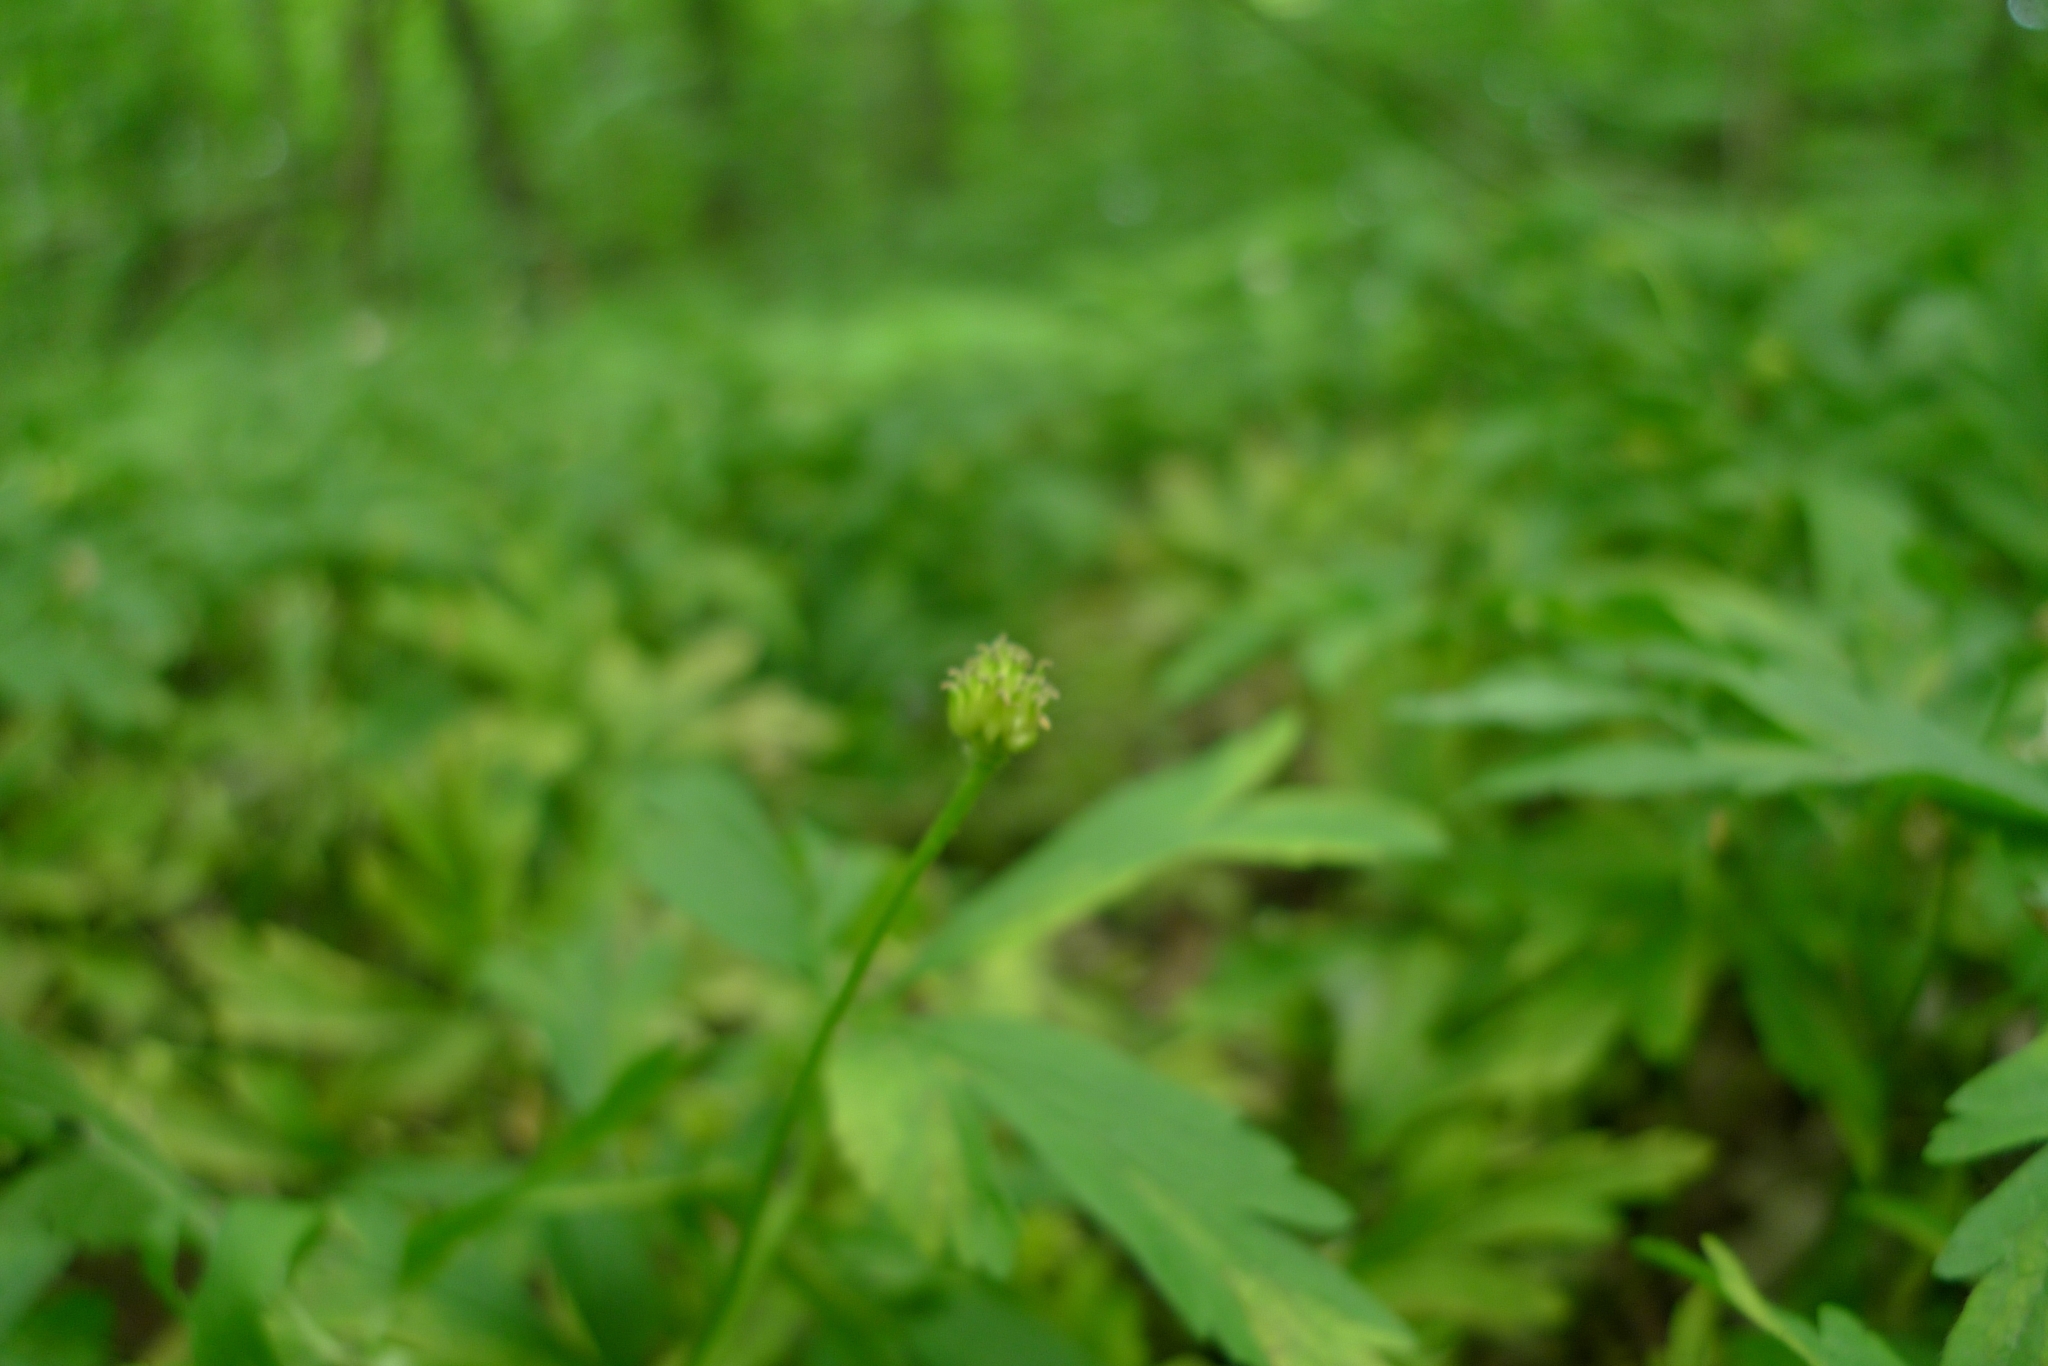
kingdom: Plantae
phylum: Tracheophyta
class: Magnoliopsida
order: Ranunculales
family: Ranunculaceae
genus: Anemone
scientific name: Anemone nemorosa
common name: Wood anemone
